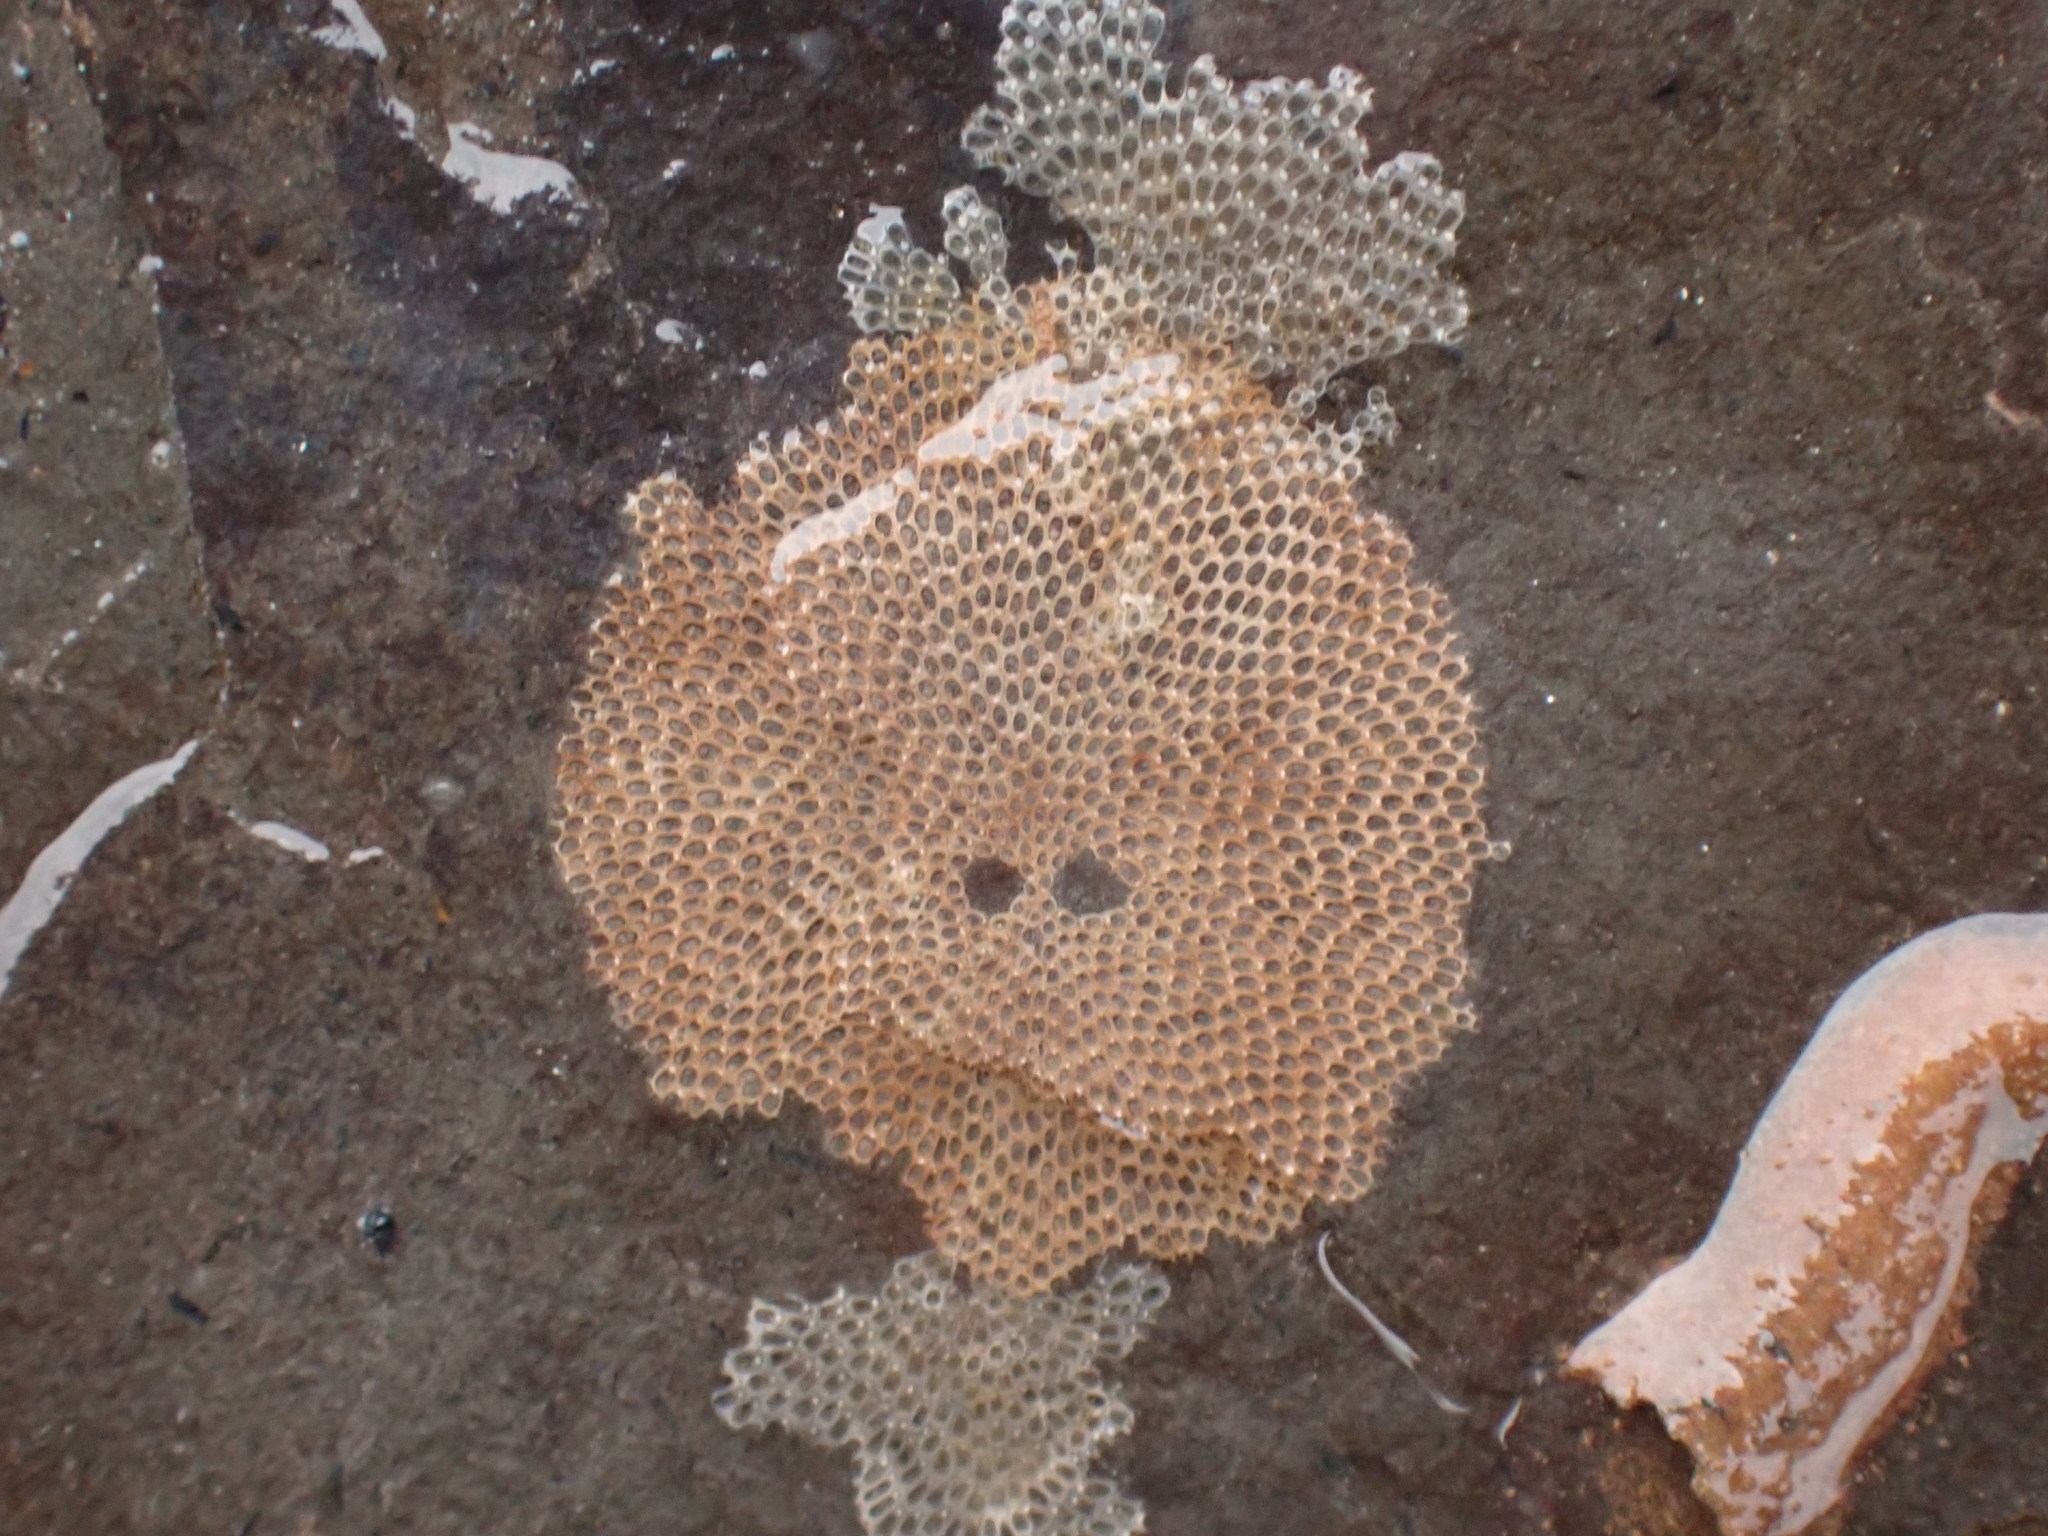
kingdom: Animalia
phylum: Bryozoa
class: Gymnolaemata
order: Cheilostomatida
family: Electridae
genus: Einhornia
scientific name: Einhornia crustulenta
